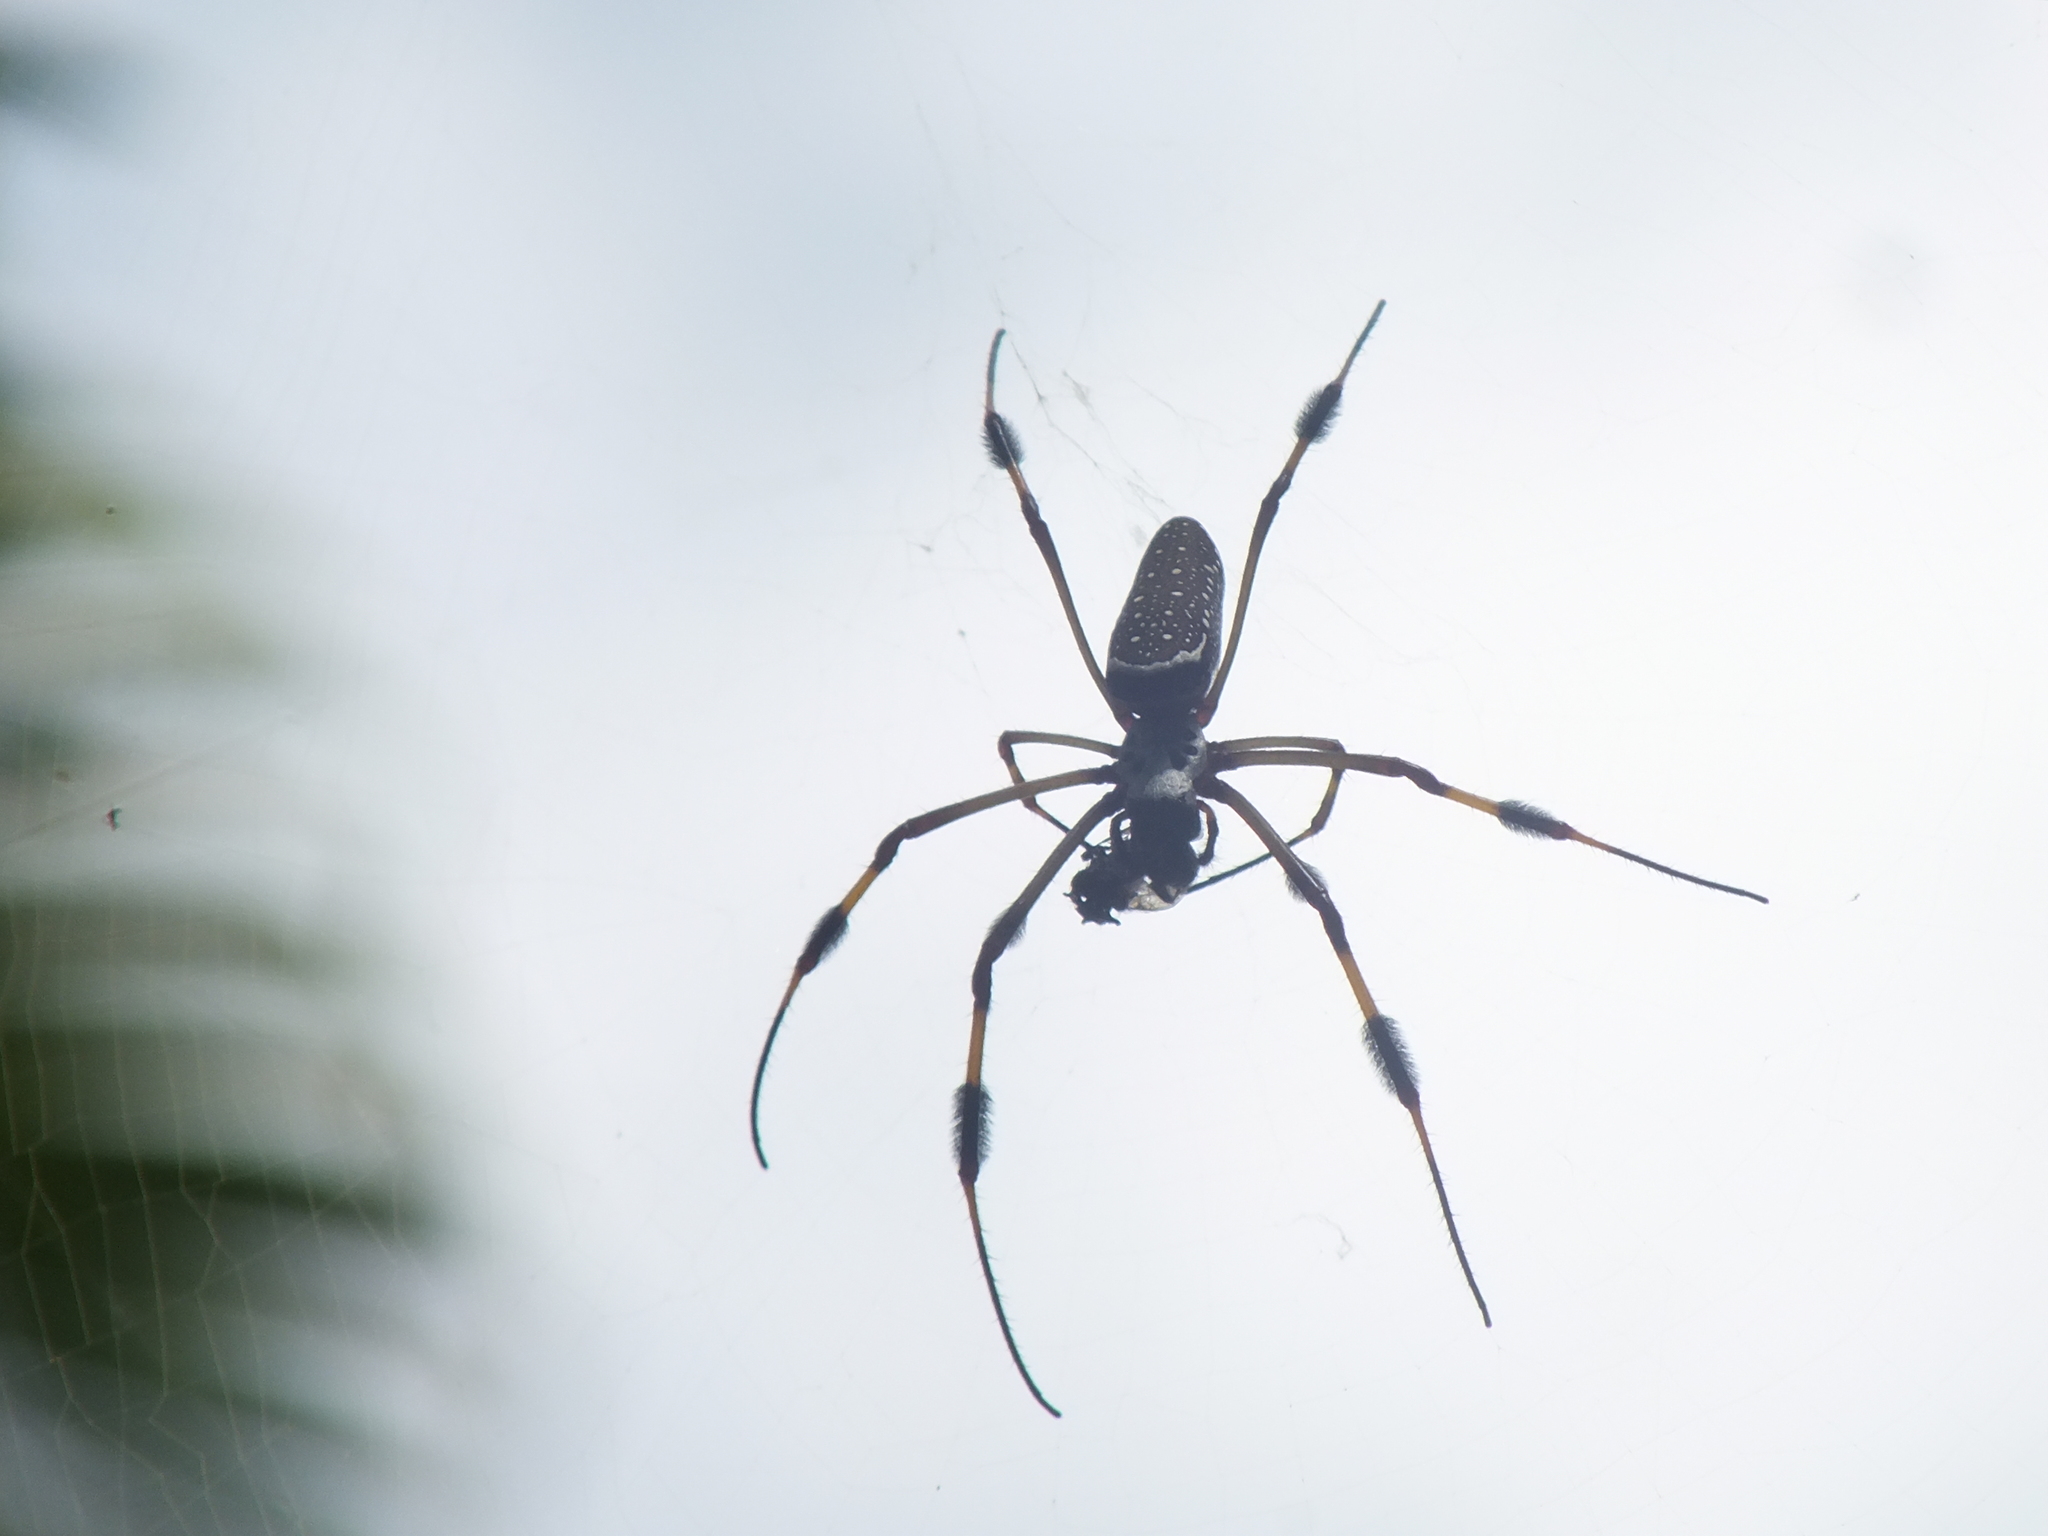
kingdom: Animalia
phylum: Arthropoda
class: Arachnida
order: Araneae
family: Araneidae
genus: Trichonephila
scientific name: Trichonephila clavipes
